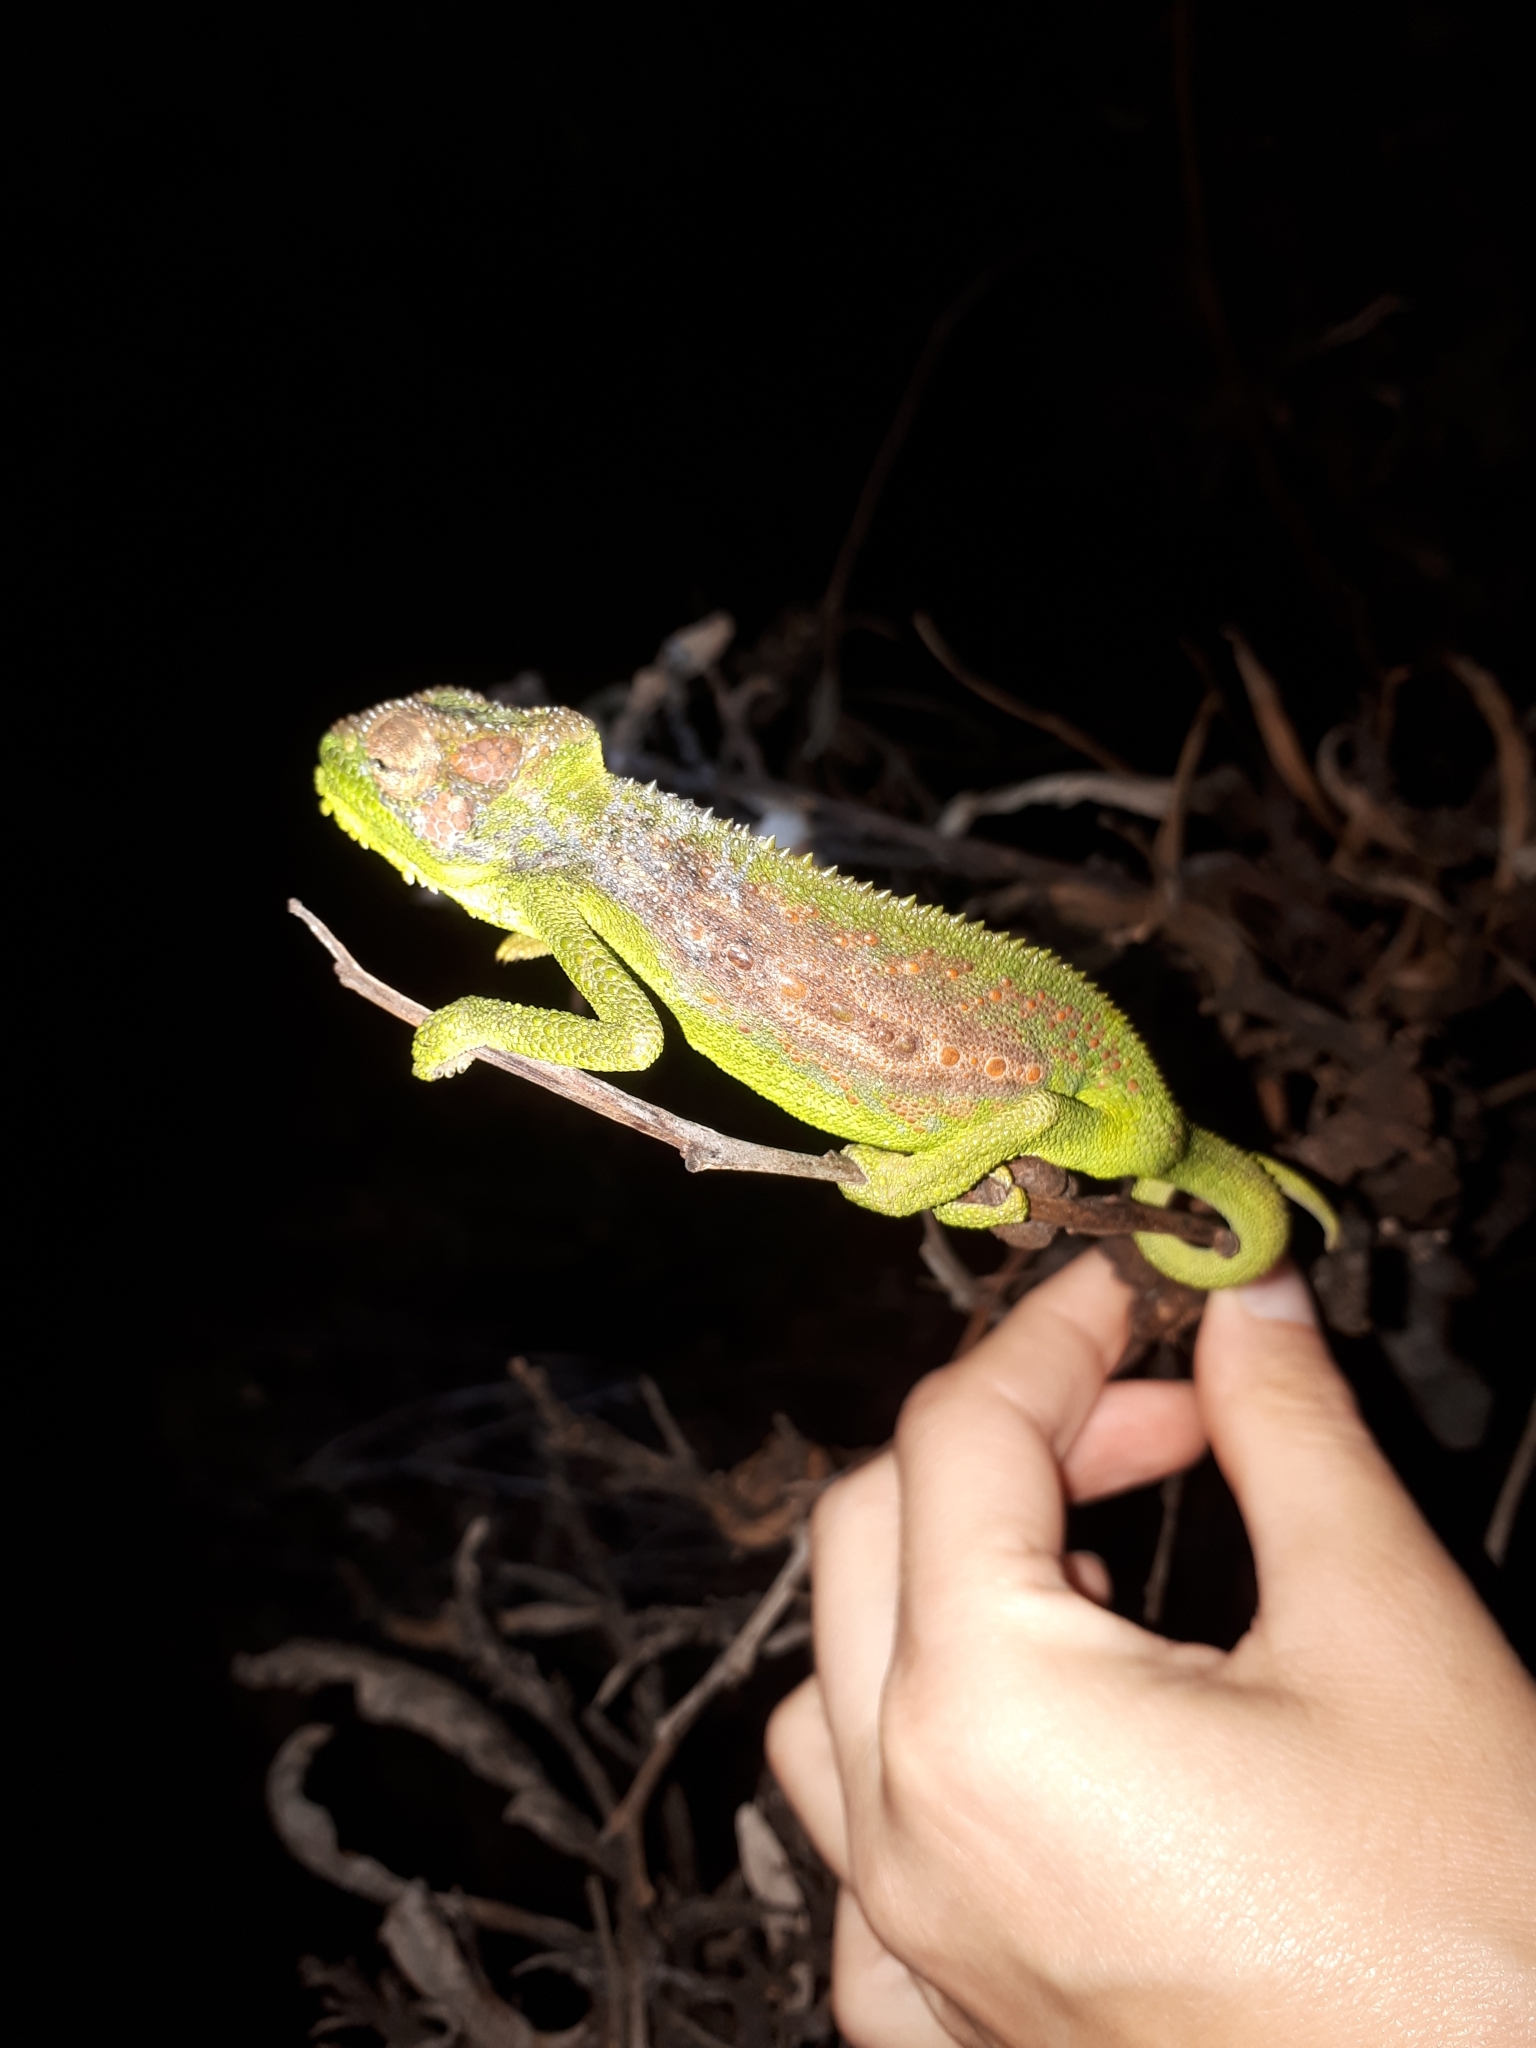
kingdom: Animalia
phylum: Chordata
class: Squamata
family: Chamaeleonidae
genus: Bradypodion
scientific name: Bradypodion pumilum
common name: Cape dwarf chameleon
